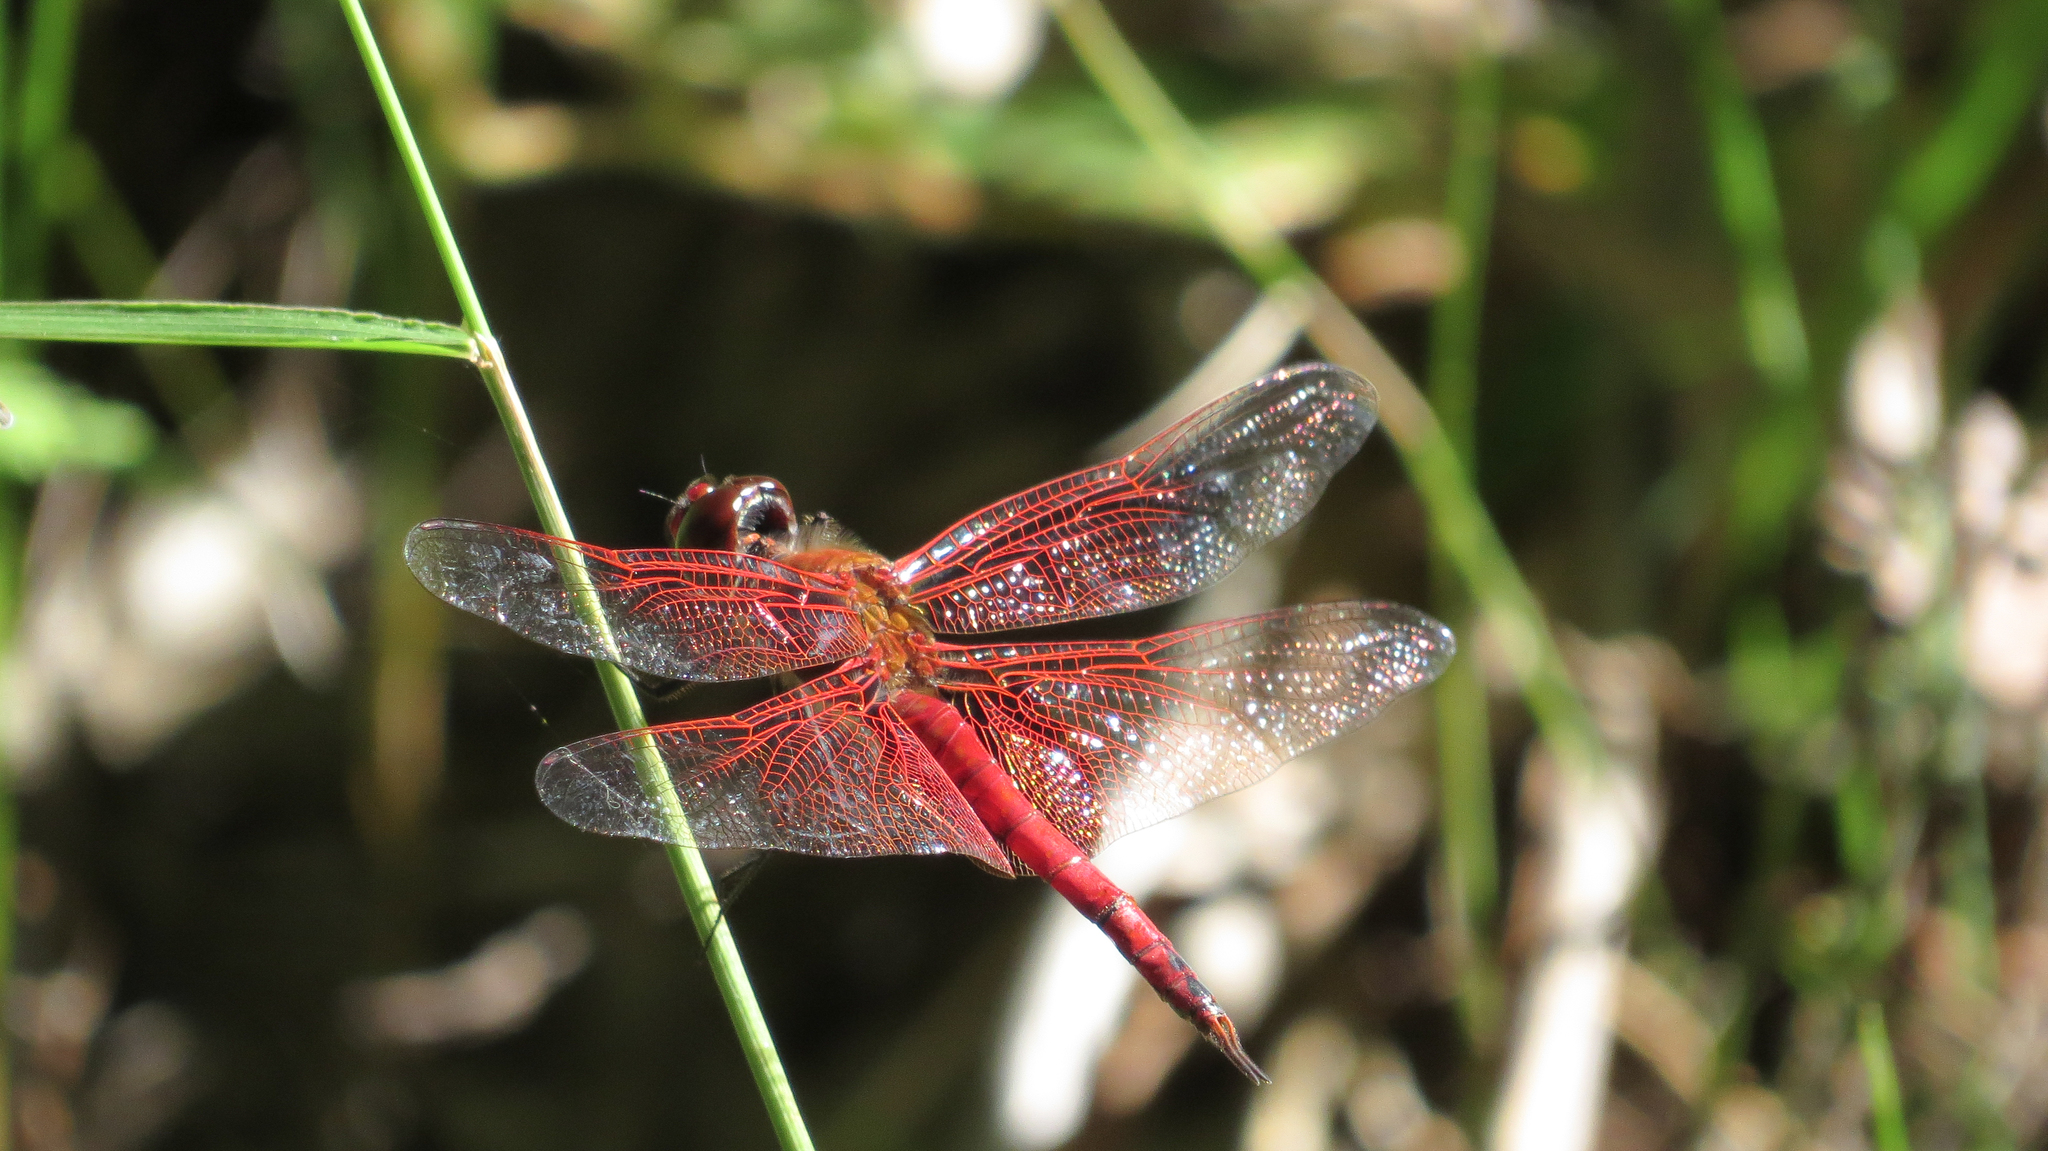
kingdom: Animalia
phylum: Arthropoda
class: Insecta
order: Odonata
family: Libellulidae
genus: Tramea
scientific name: Tramea eurybia
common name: Dune glider
